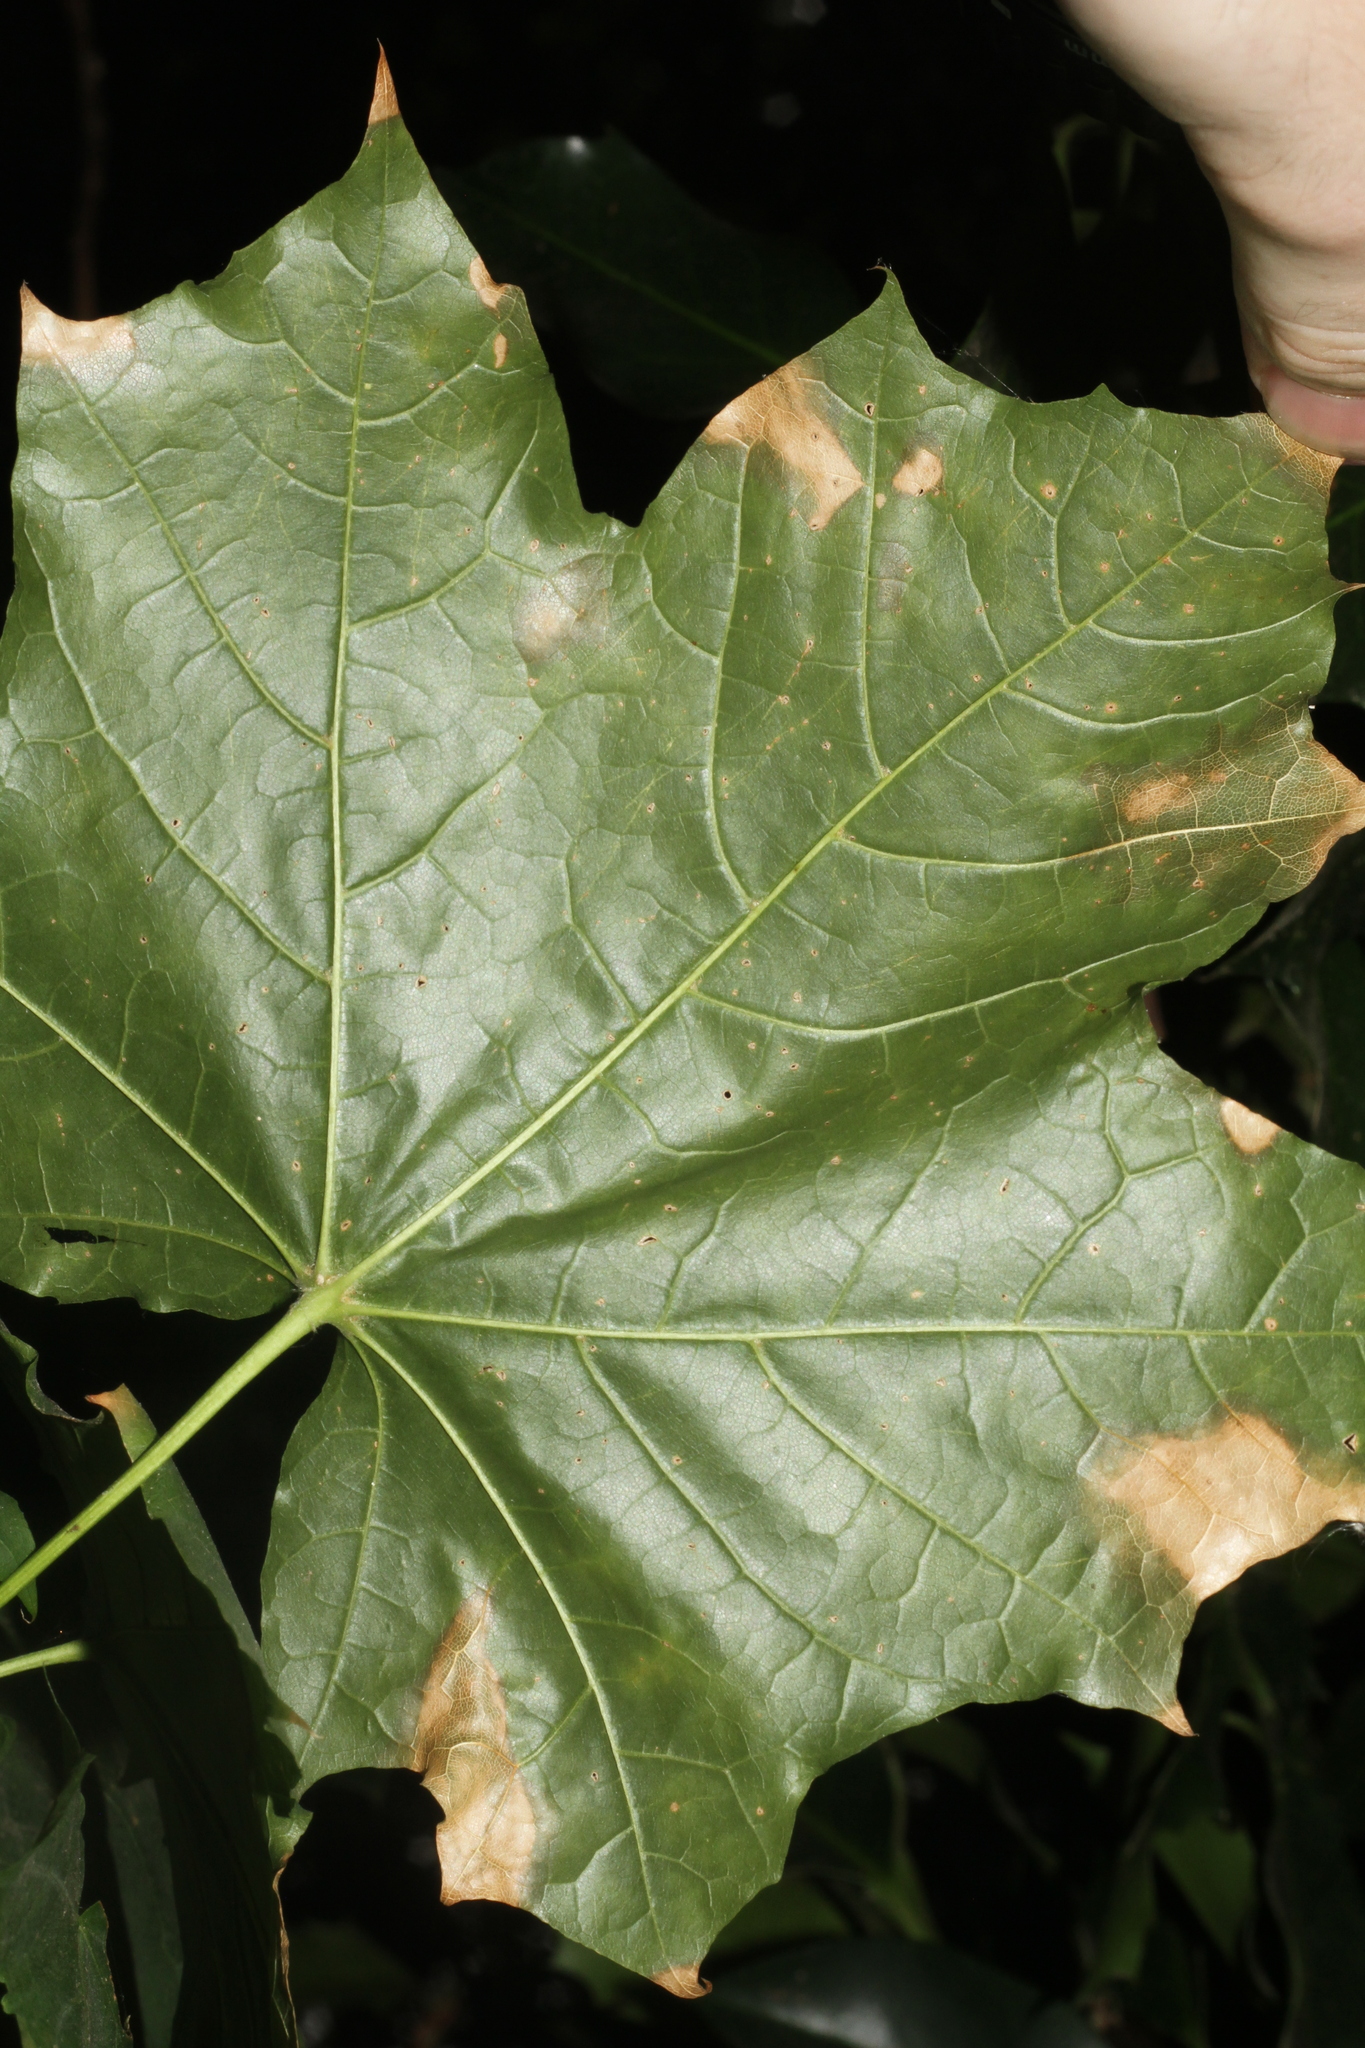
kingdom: Plantae
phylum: Tracheophyta
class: Magnoliopsida
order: Sapindales
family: Sapindaceae
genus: Acer
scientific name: Acer platanoides
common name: Norway maple
